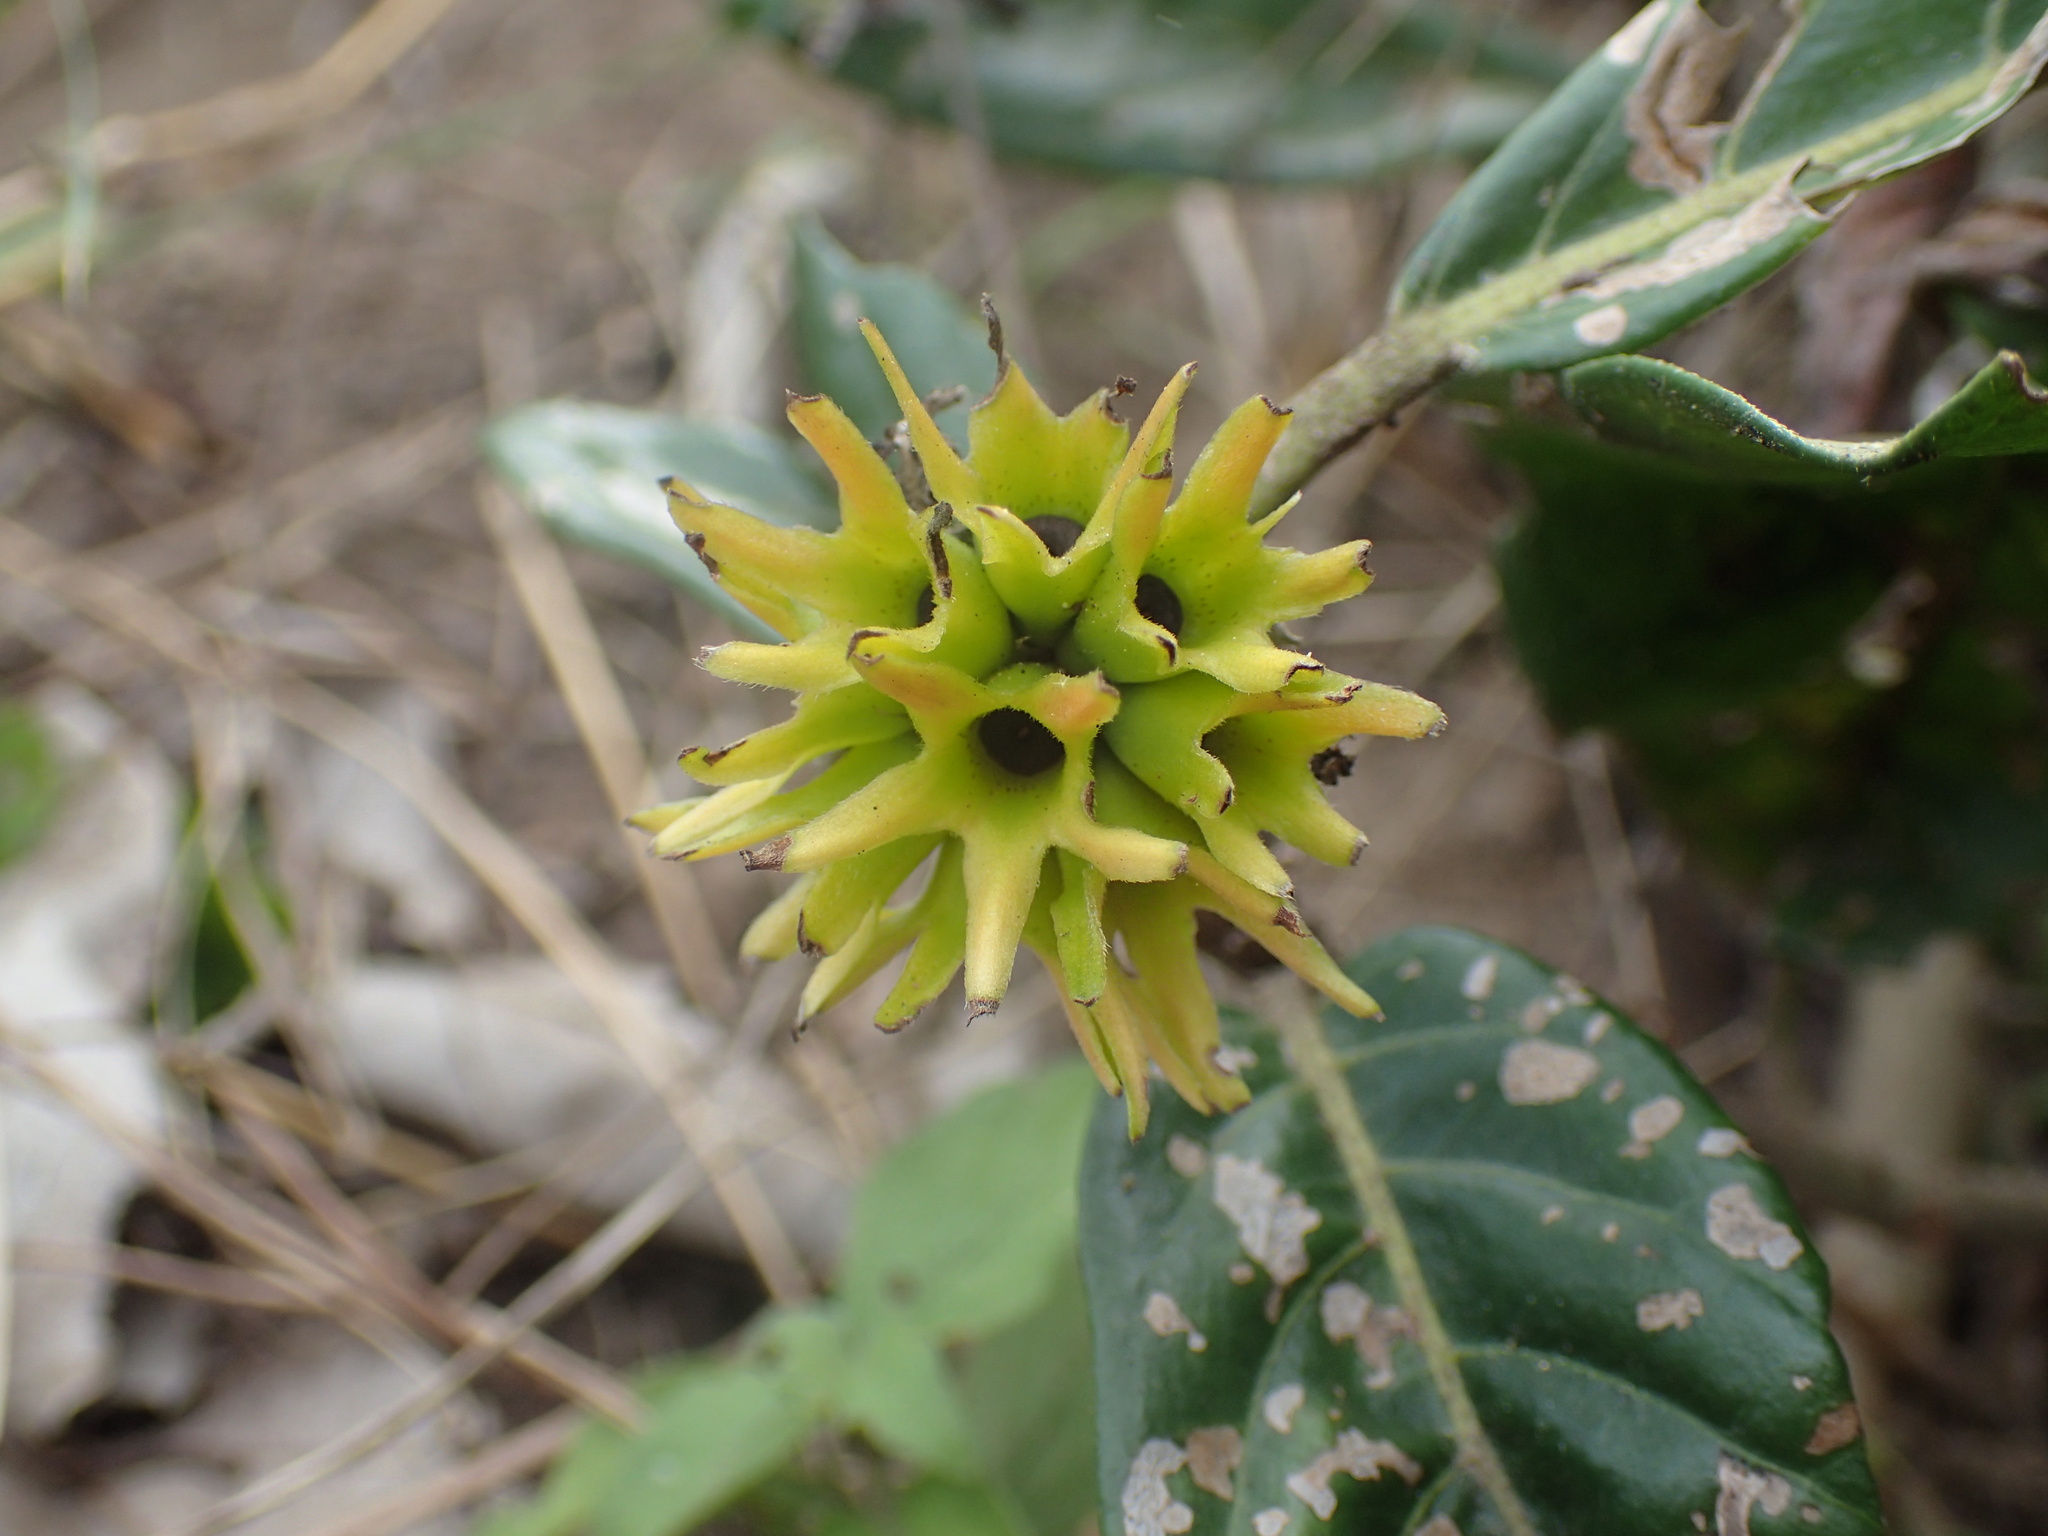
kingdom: Plantae
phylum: Tracheophyta
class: Magnoliopsida
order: Gentianales
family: Rubiaceae
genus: Burchellia
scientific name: Burchellia bubalina
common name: Wild pomegranate
